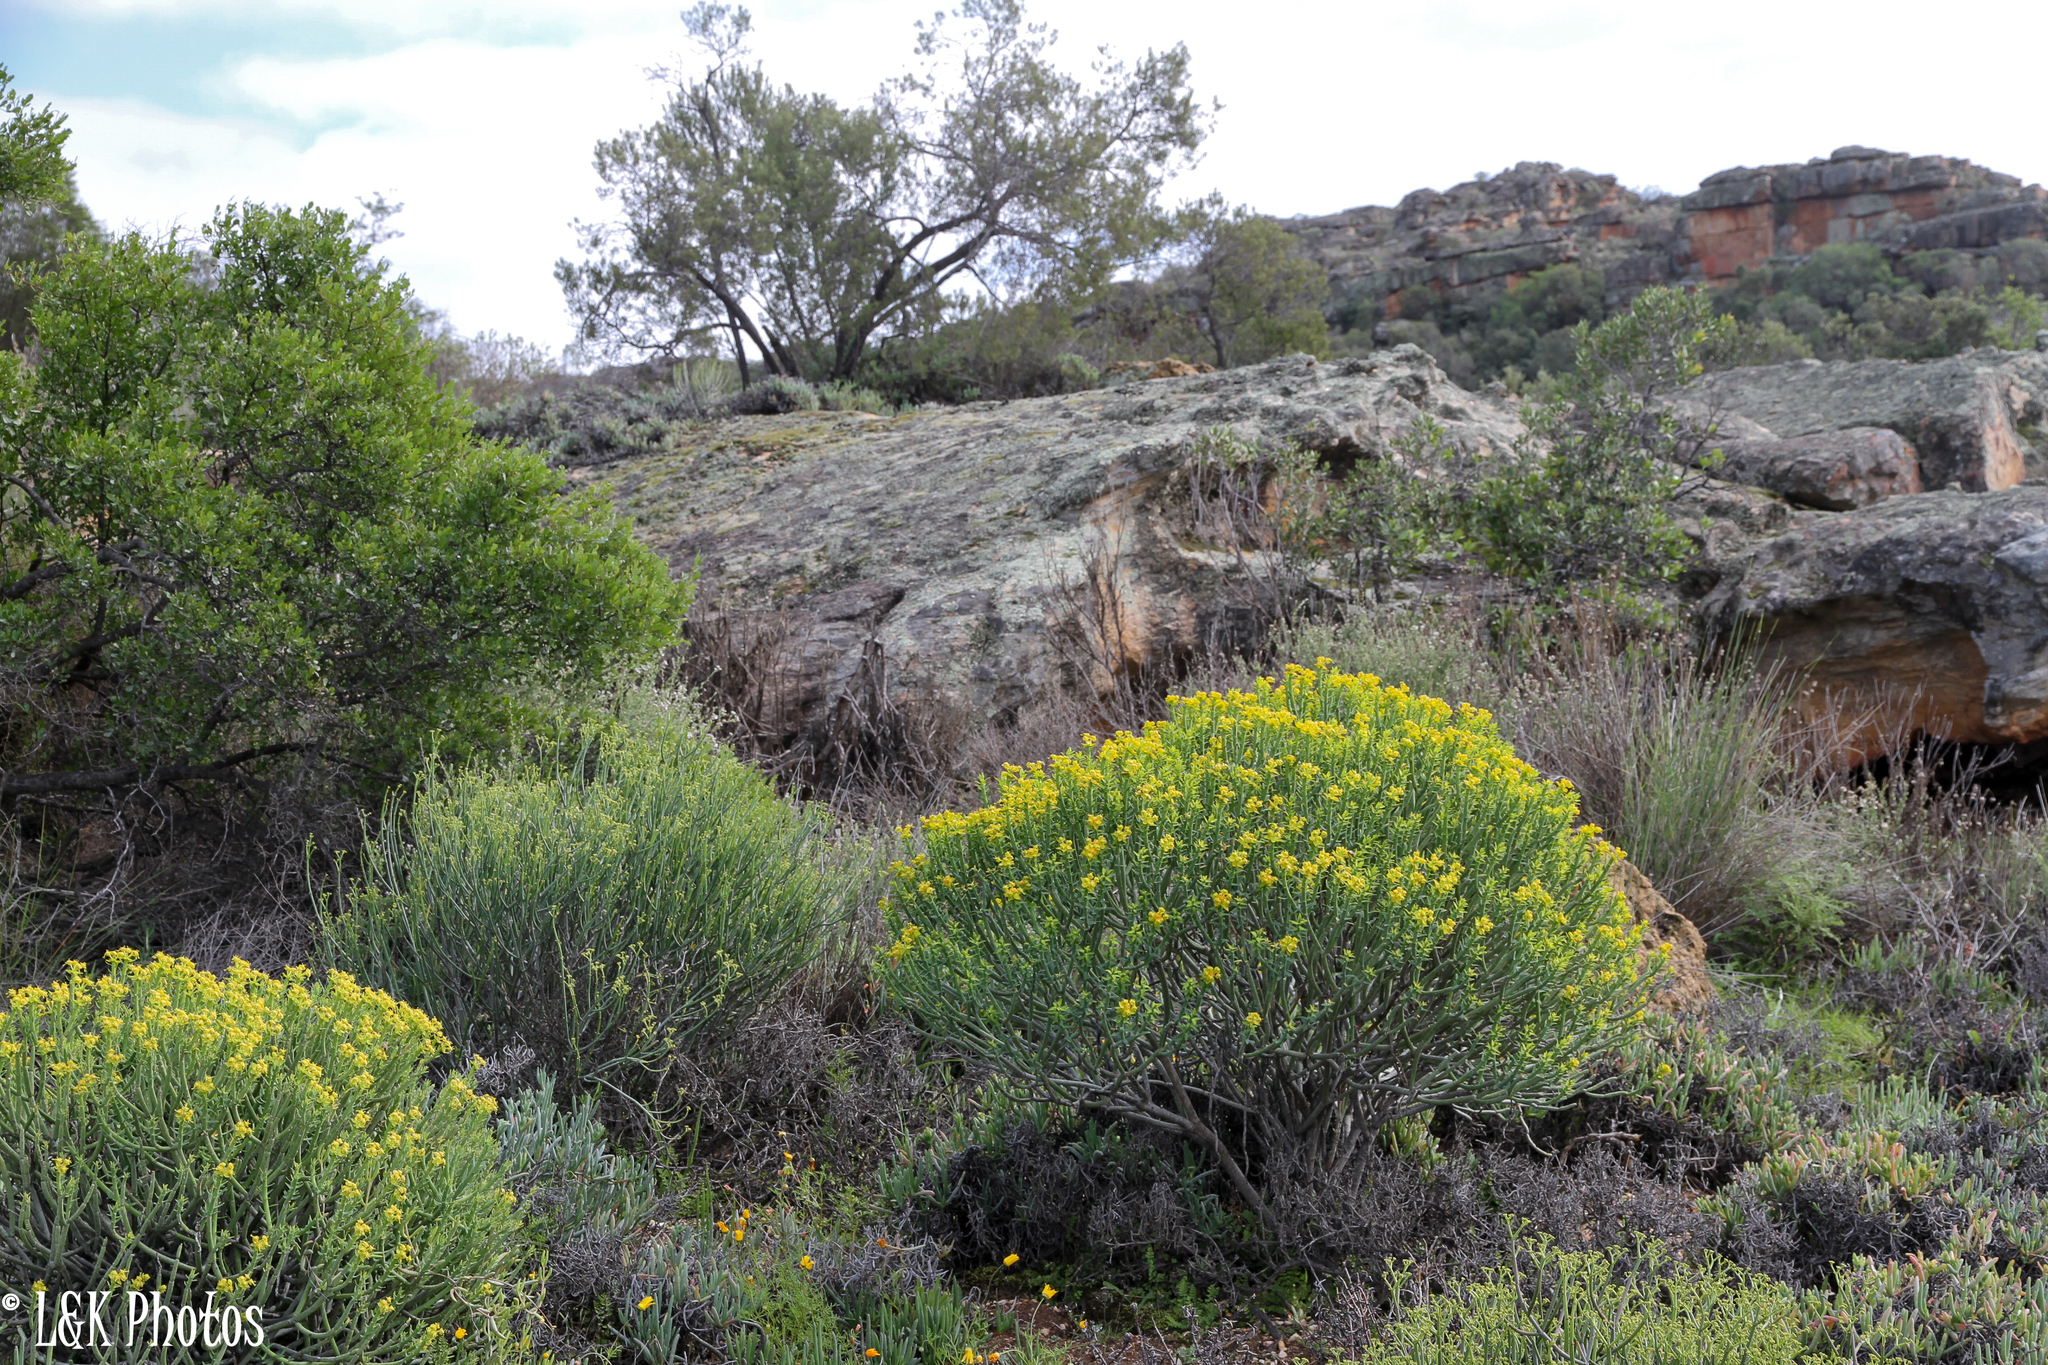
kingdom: Plantae
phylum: Tracheophyta
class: Magnoliopsida
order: Malpighiales
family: Euphorbiaceae
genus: Euphorbia
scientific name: Euphorbia mauritanica
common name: Jackal's-food
